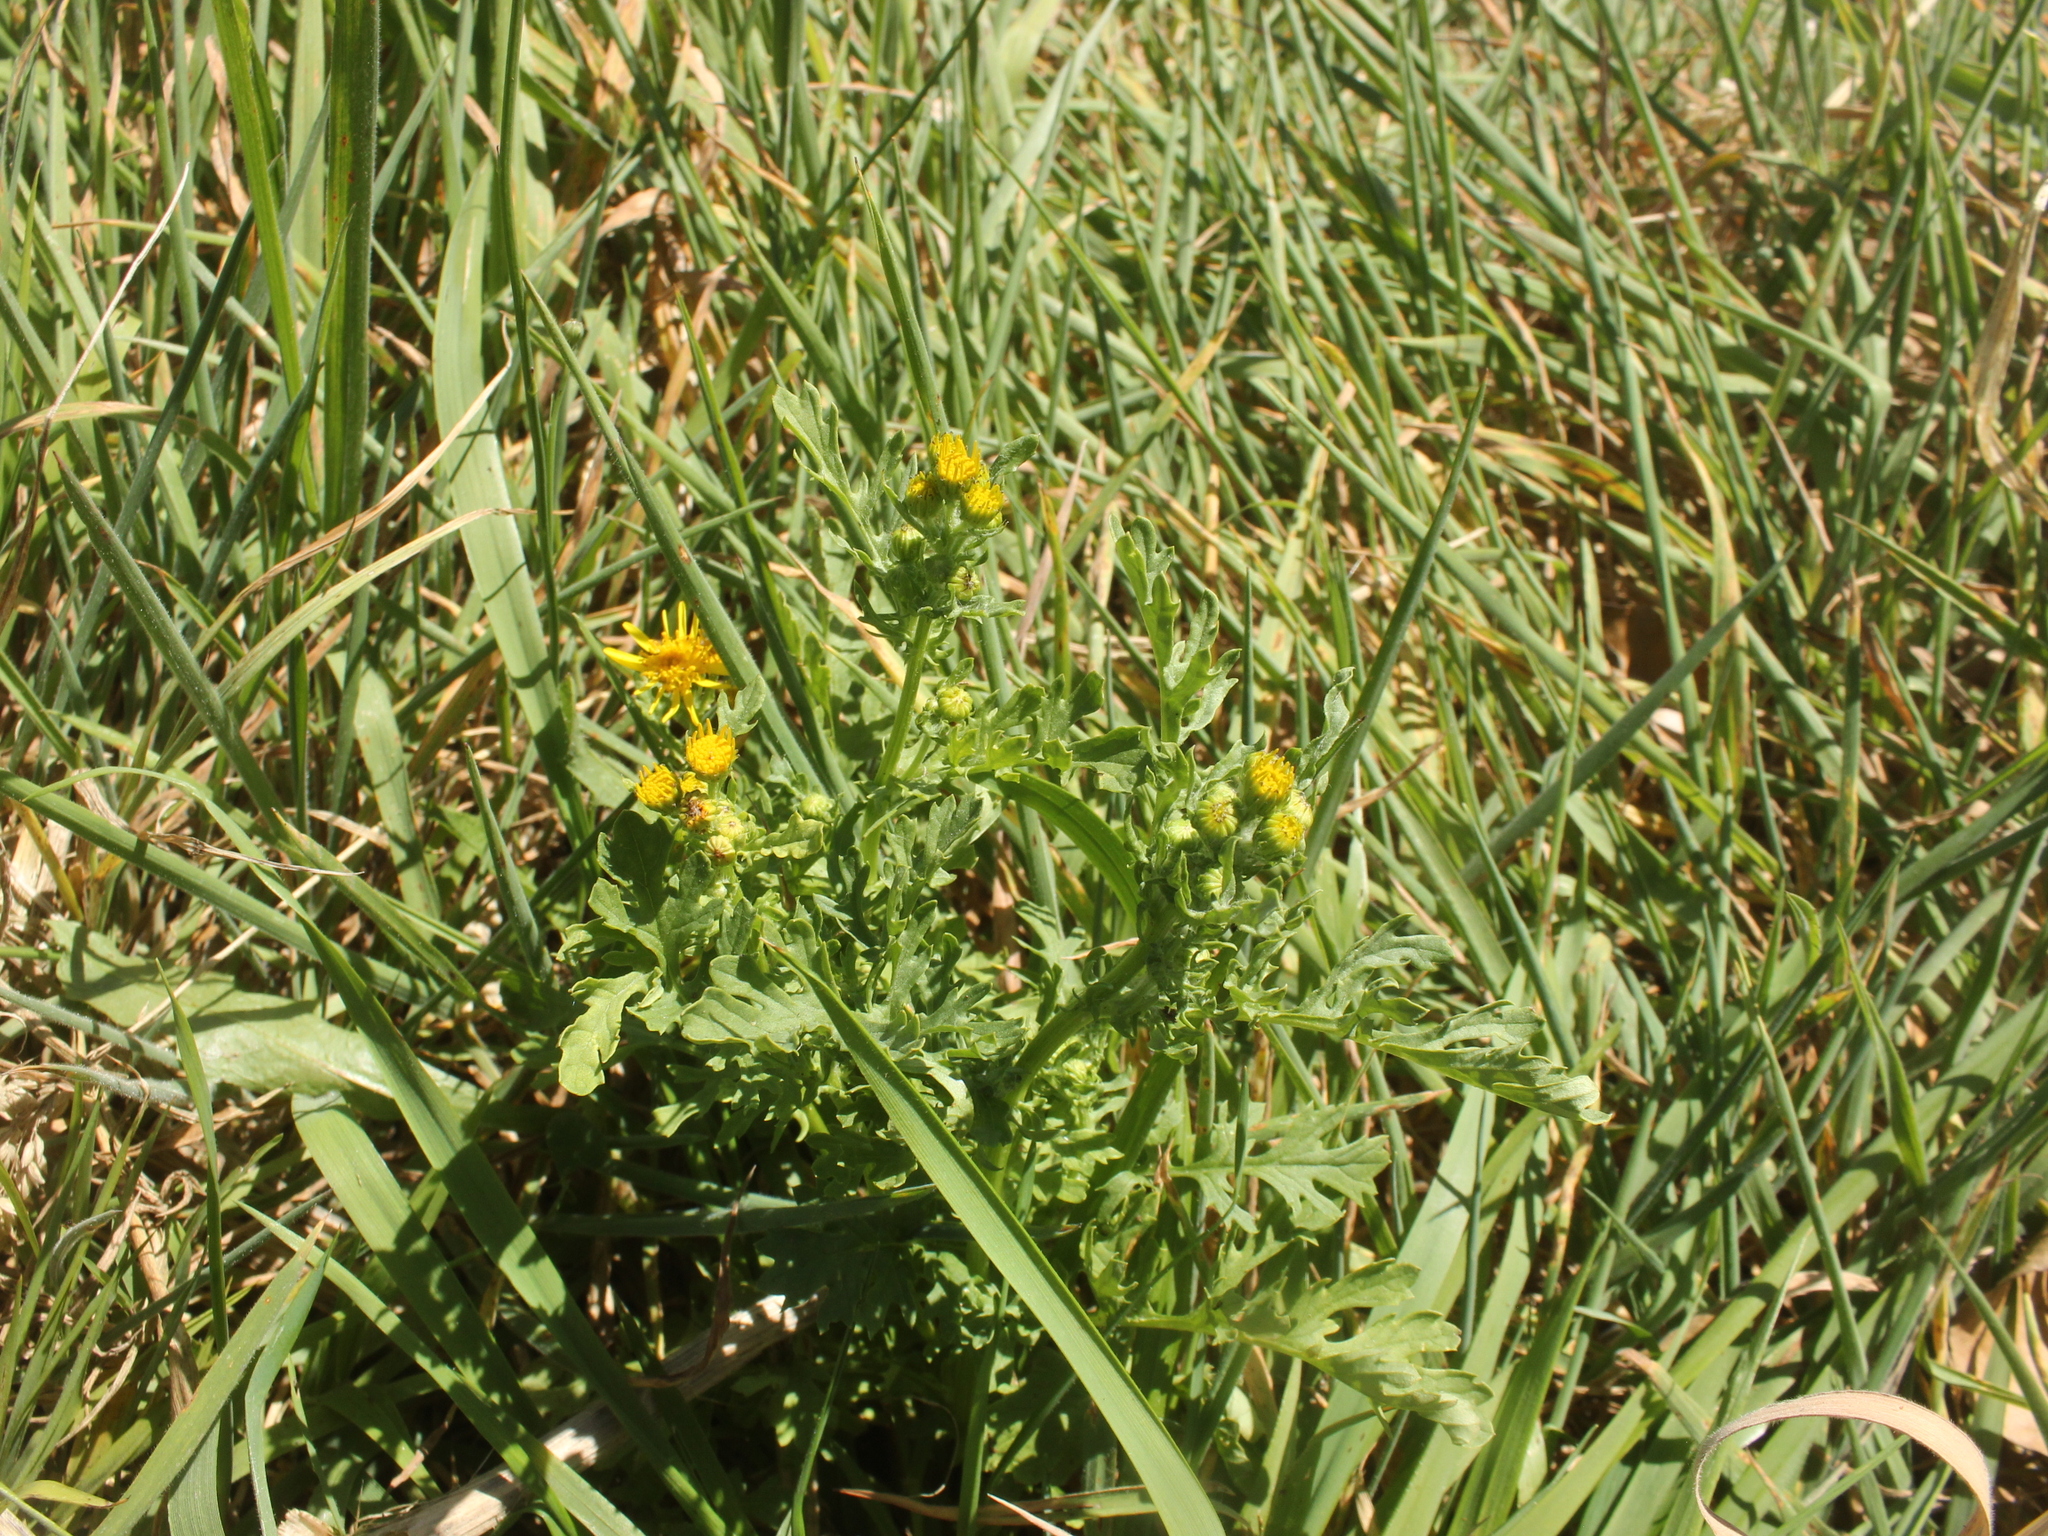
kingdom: Plantae
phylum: Tracheophyta
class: Magnoliopsida
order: Asterales
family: Asteraceae
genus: Jacobaea
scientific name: Jacobaea vulgaris
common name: Stinking willie
